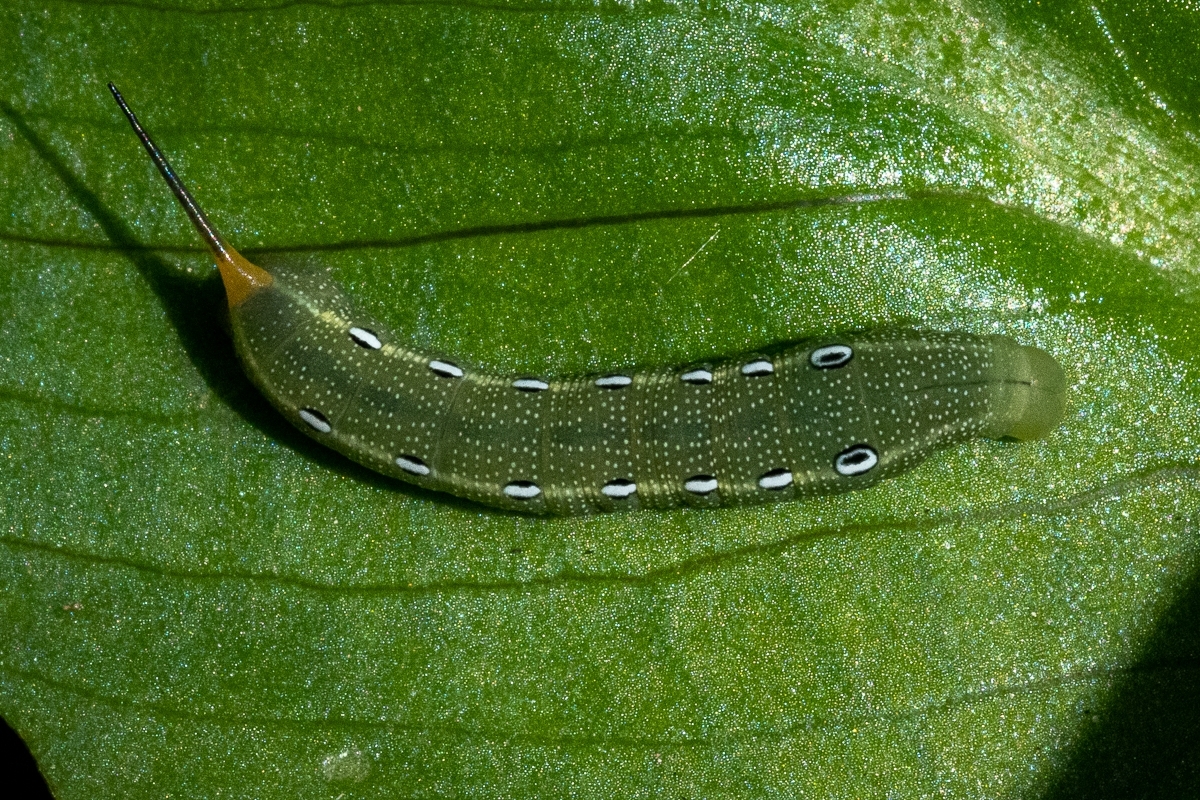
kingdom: Animalia
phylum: Arthropoda
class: Insecta
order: Lepidoptera
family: Sphingidae
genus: Theretra
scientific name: Theretra cajus
